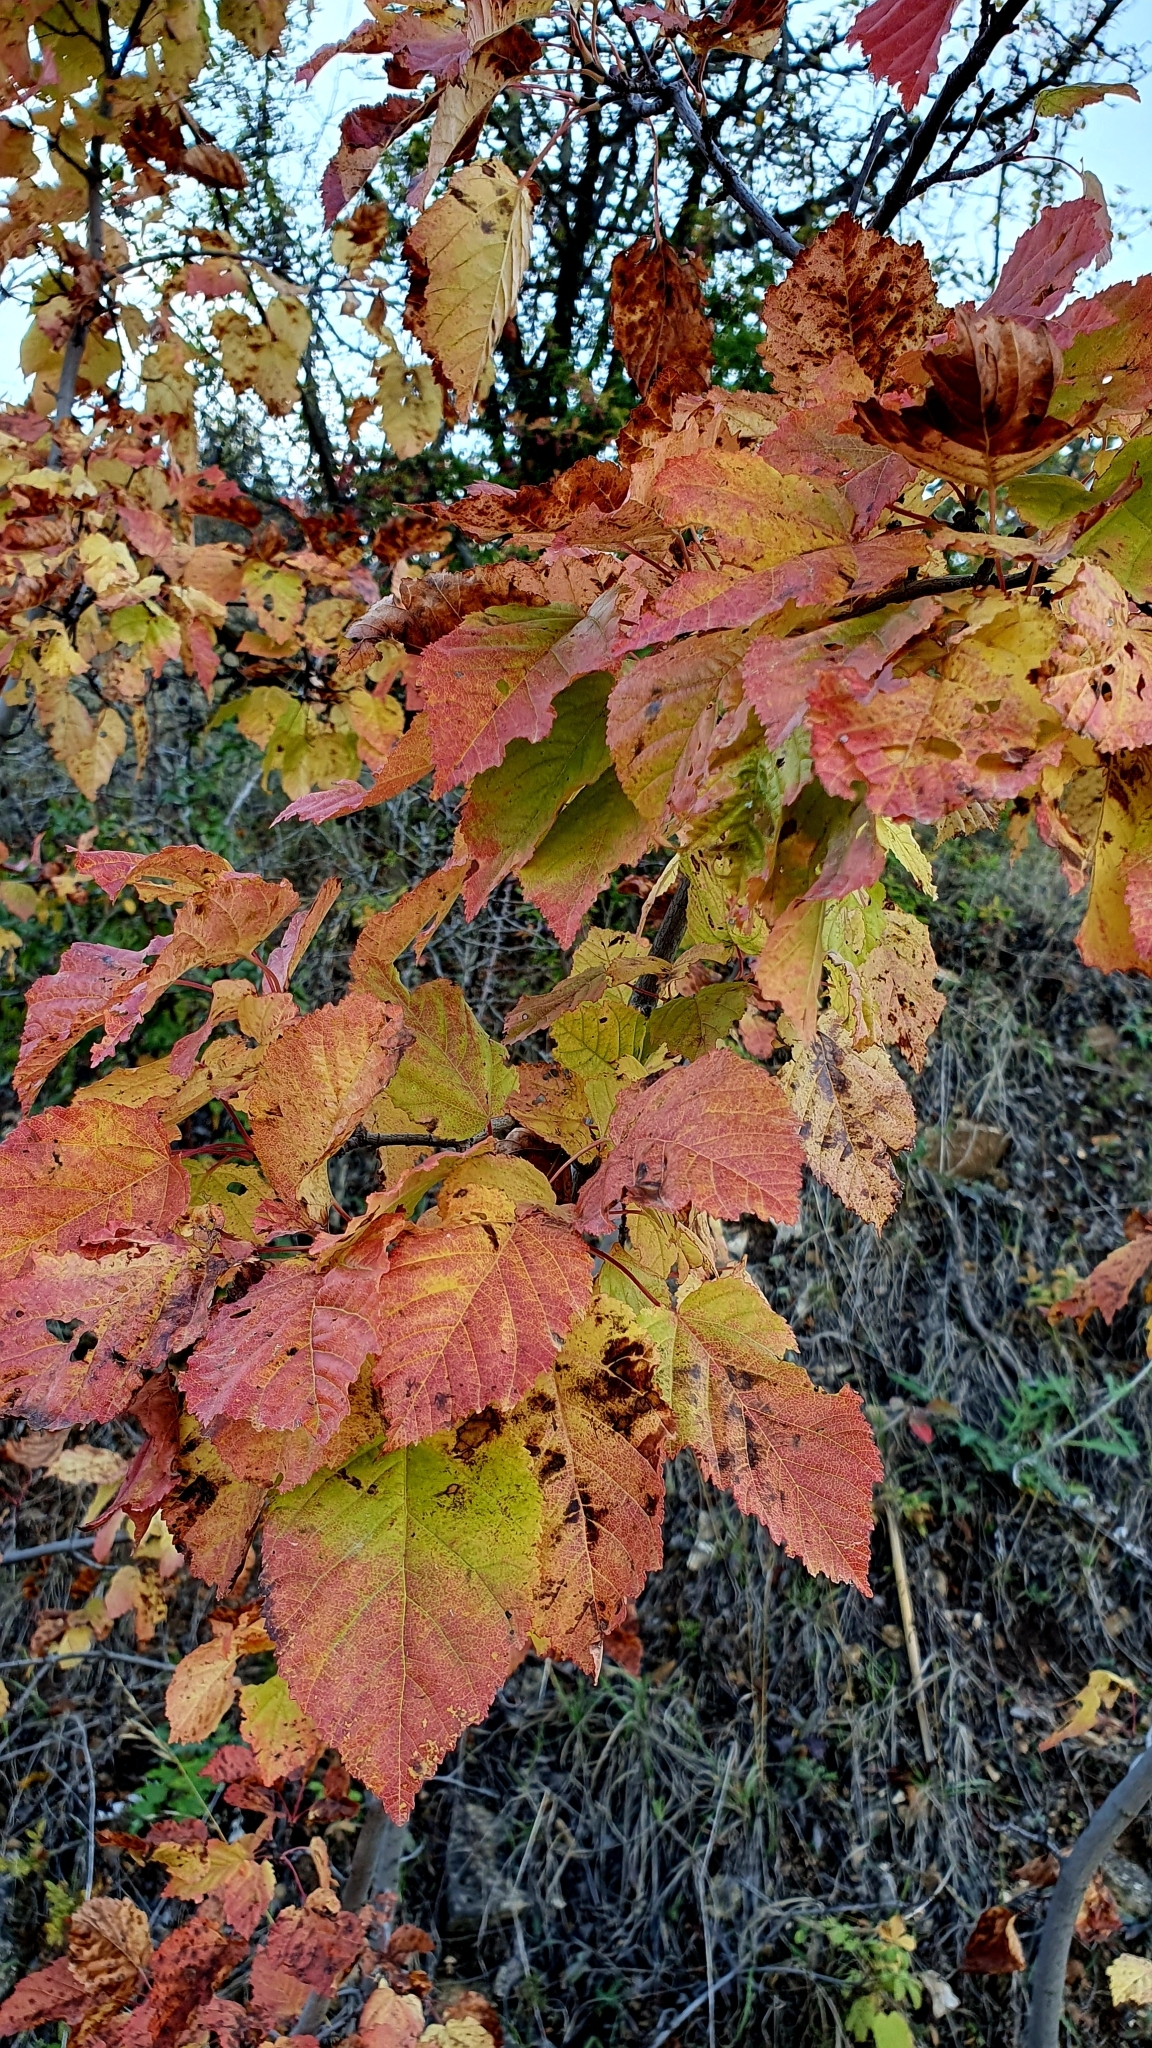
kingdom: Plantae
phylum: Tracheophyta
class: Magnoliopsida
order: Sapindales
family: Sapindaceae
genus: Acer
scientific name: Acer tataricum
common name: Tartar maple
